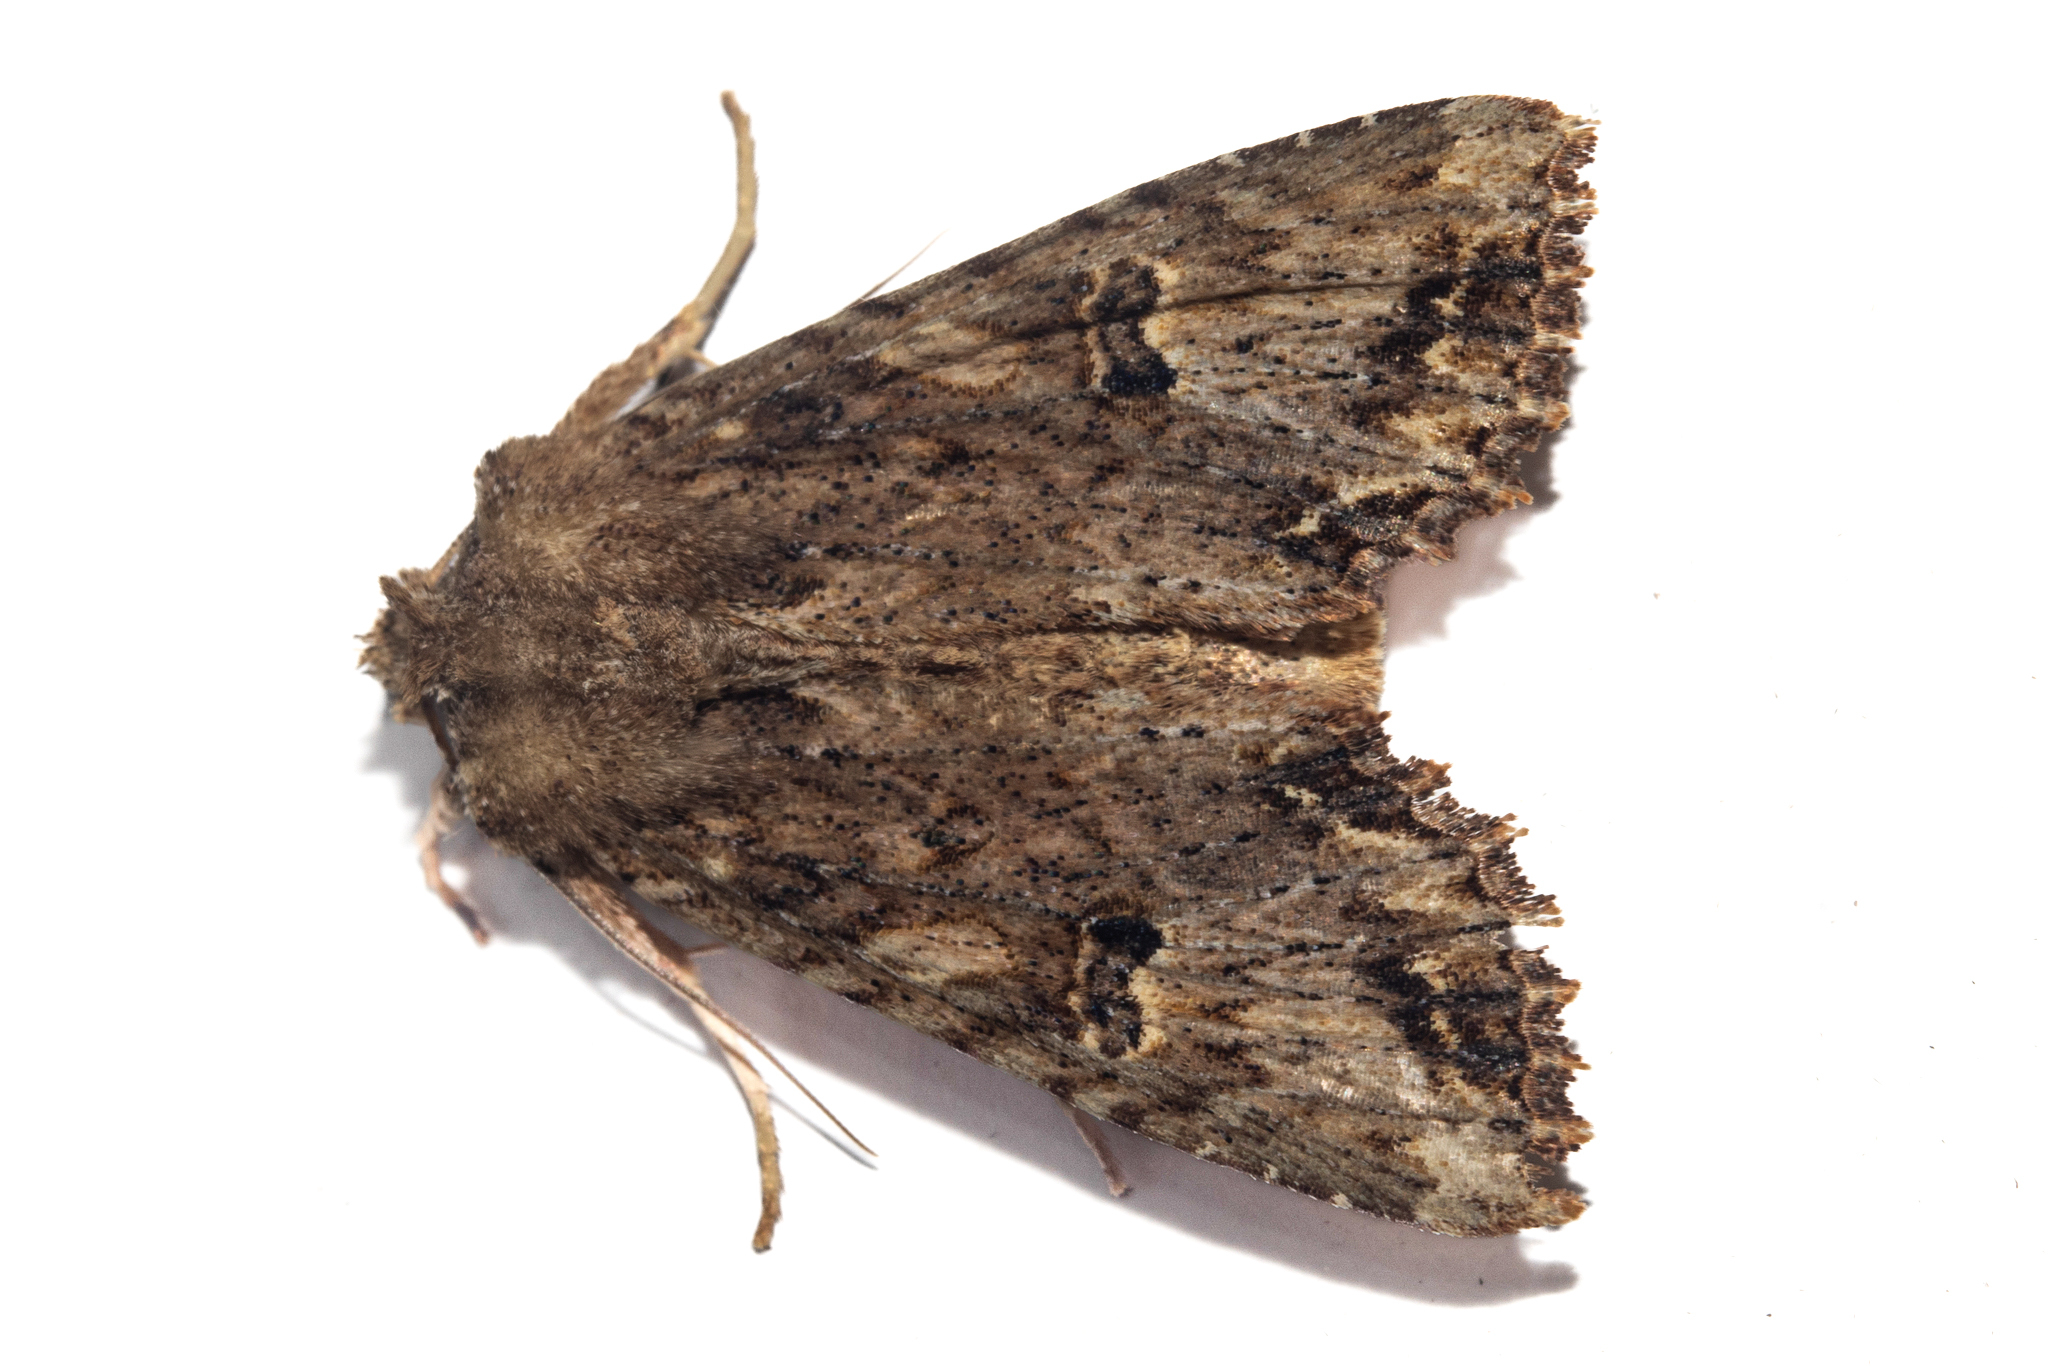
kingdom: Animalia
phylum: Arthropoda
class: Insecta
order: Lepidoptera
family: Noctuidae
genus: Meterana
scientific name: Meterana pascoei
